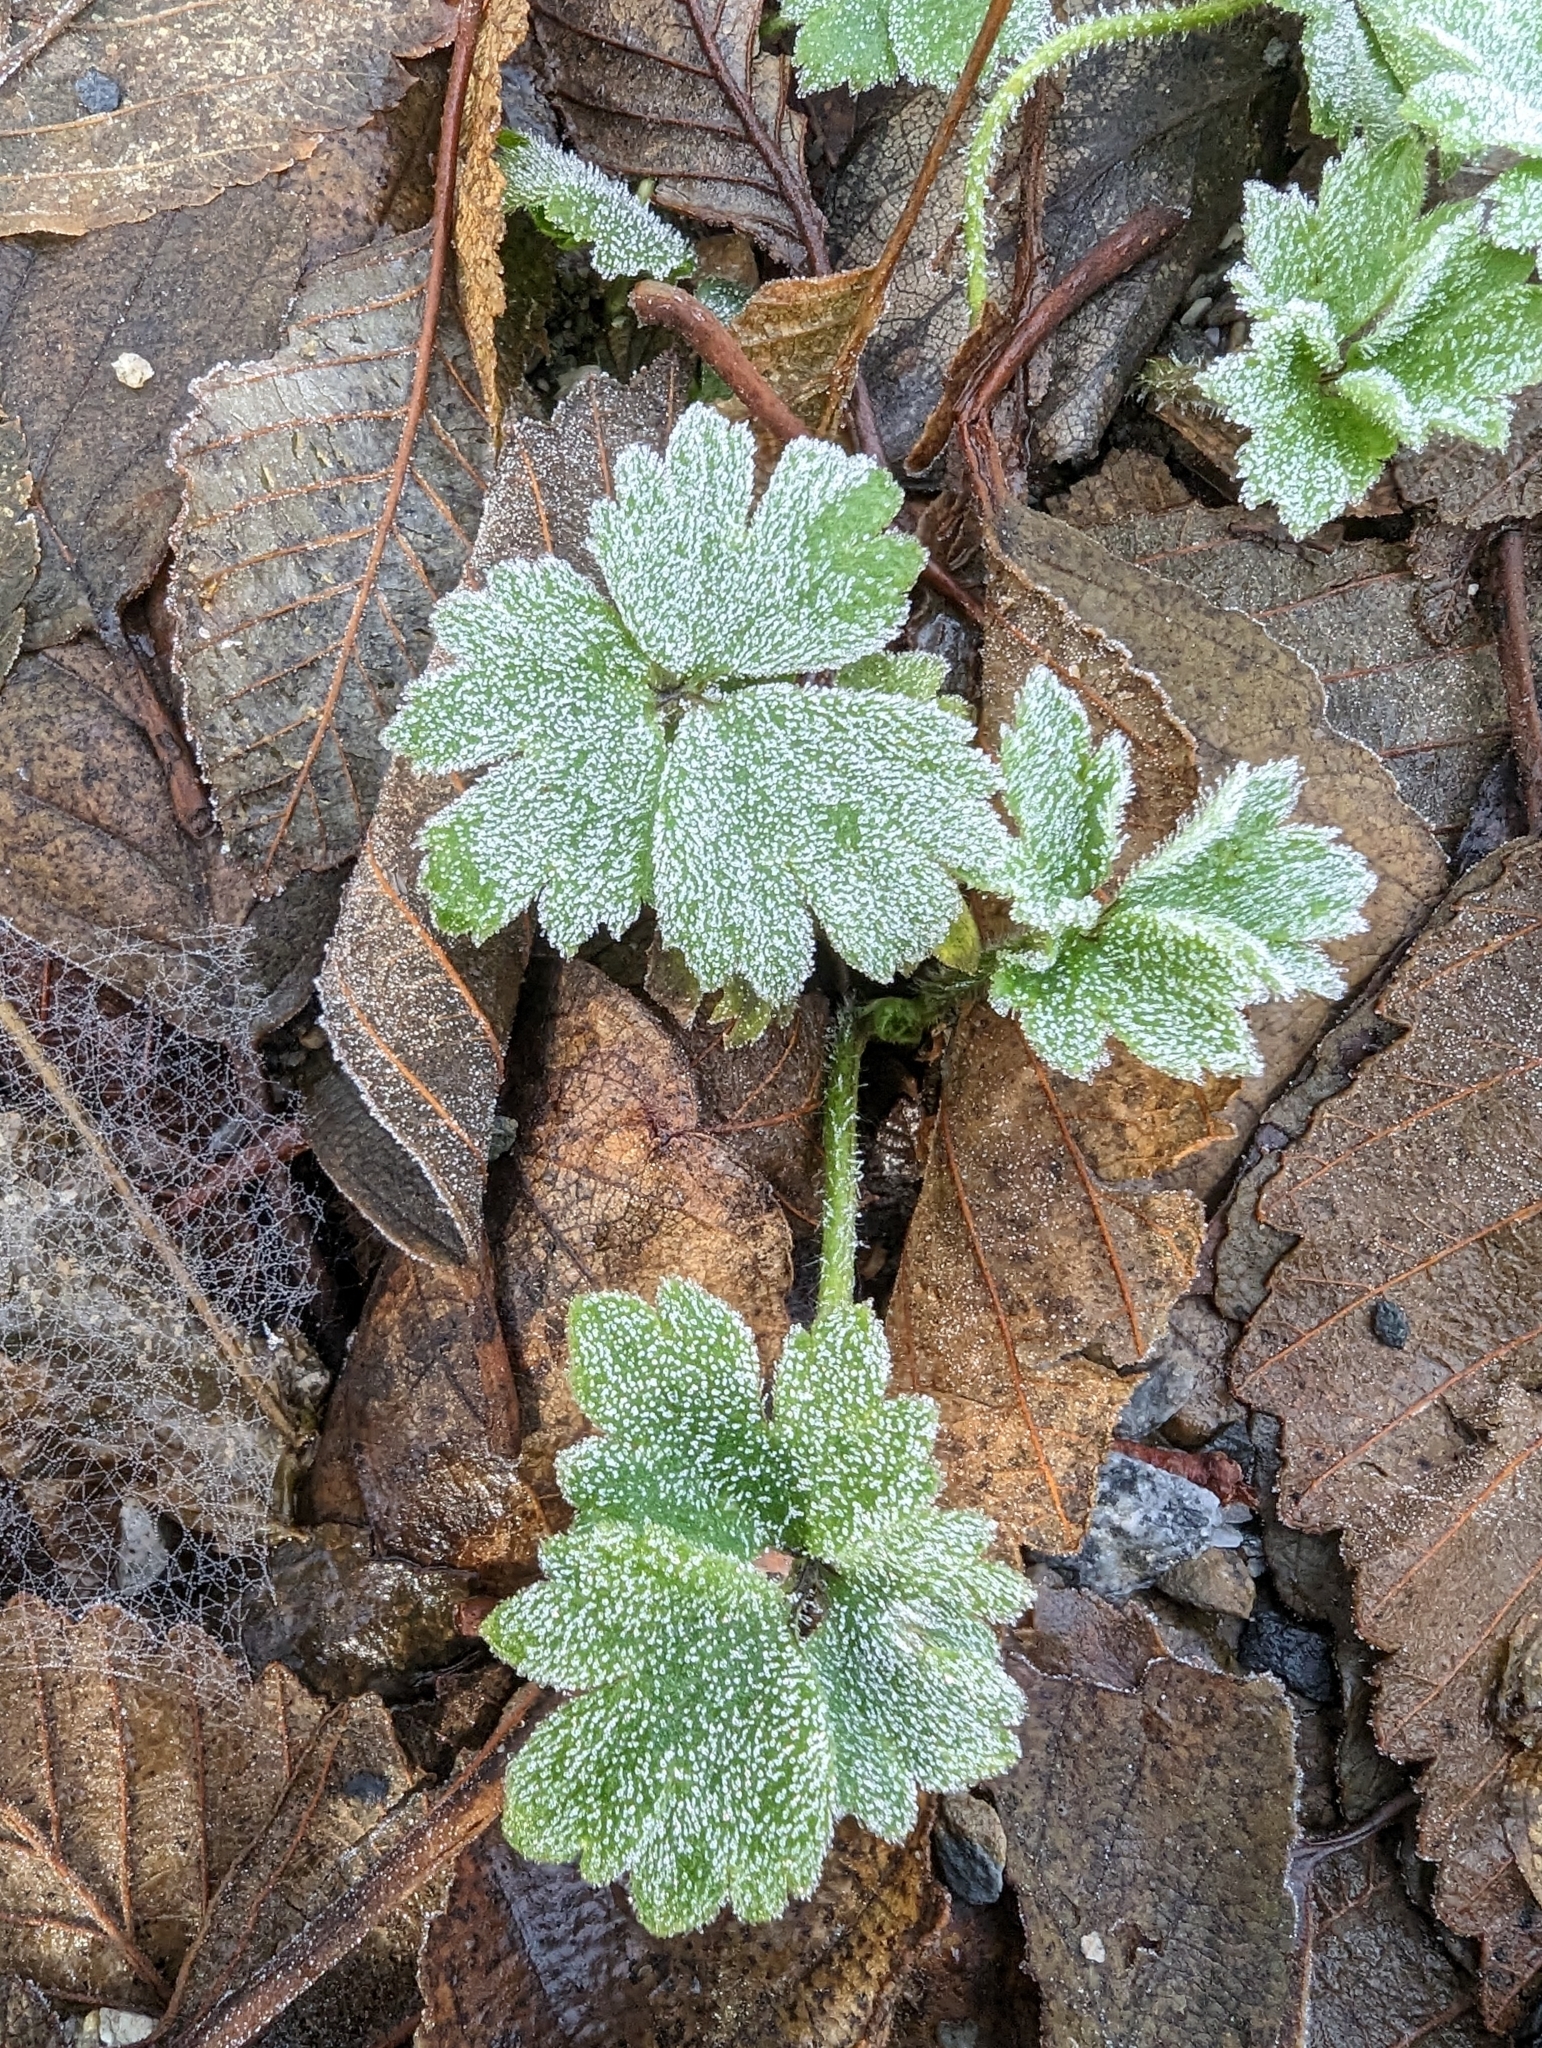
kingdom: Plantae
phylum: Tracheophyta
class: Magnoliopsida
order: Ranunculales
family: Ranunculaceae
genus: Ranunculus
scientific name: Ranunculus repens
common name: Creeping buttercup
